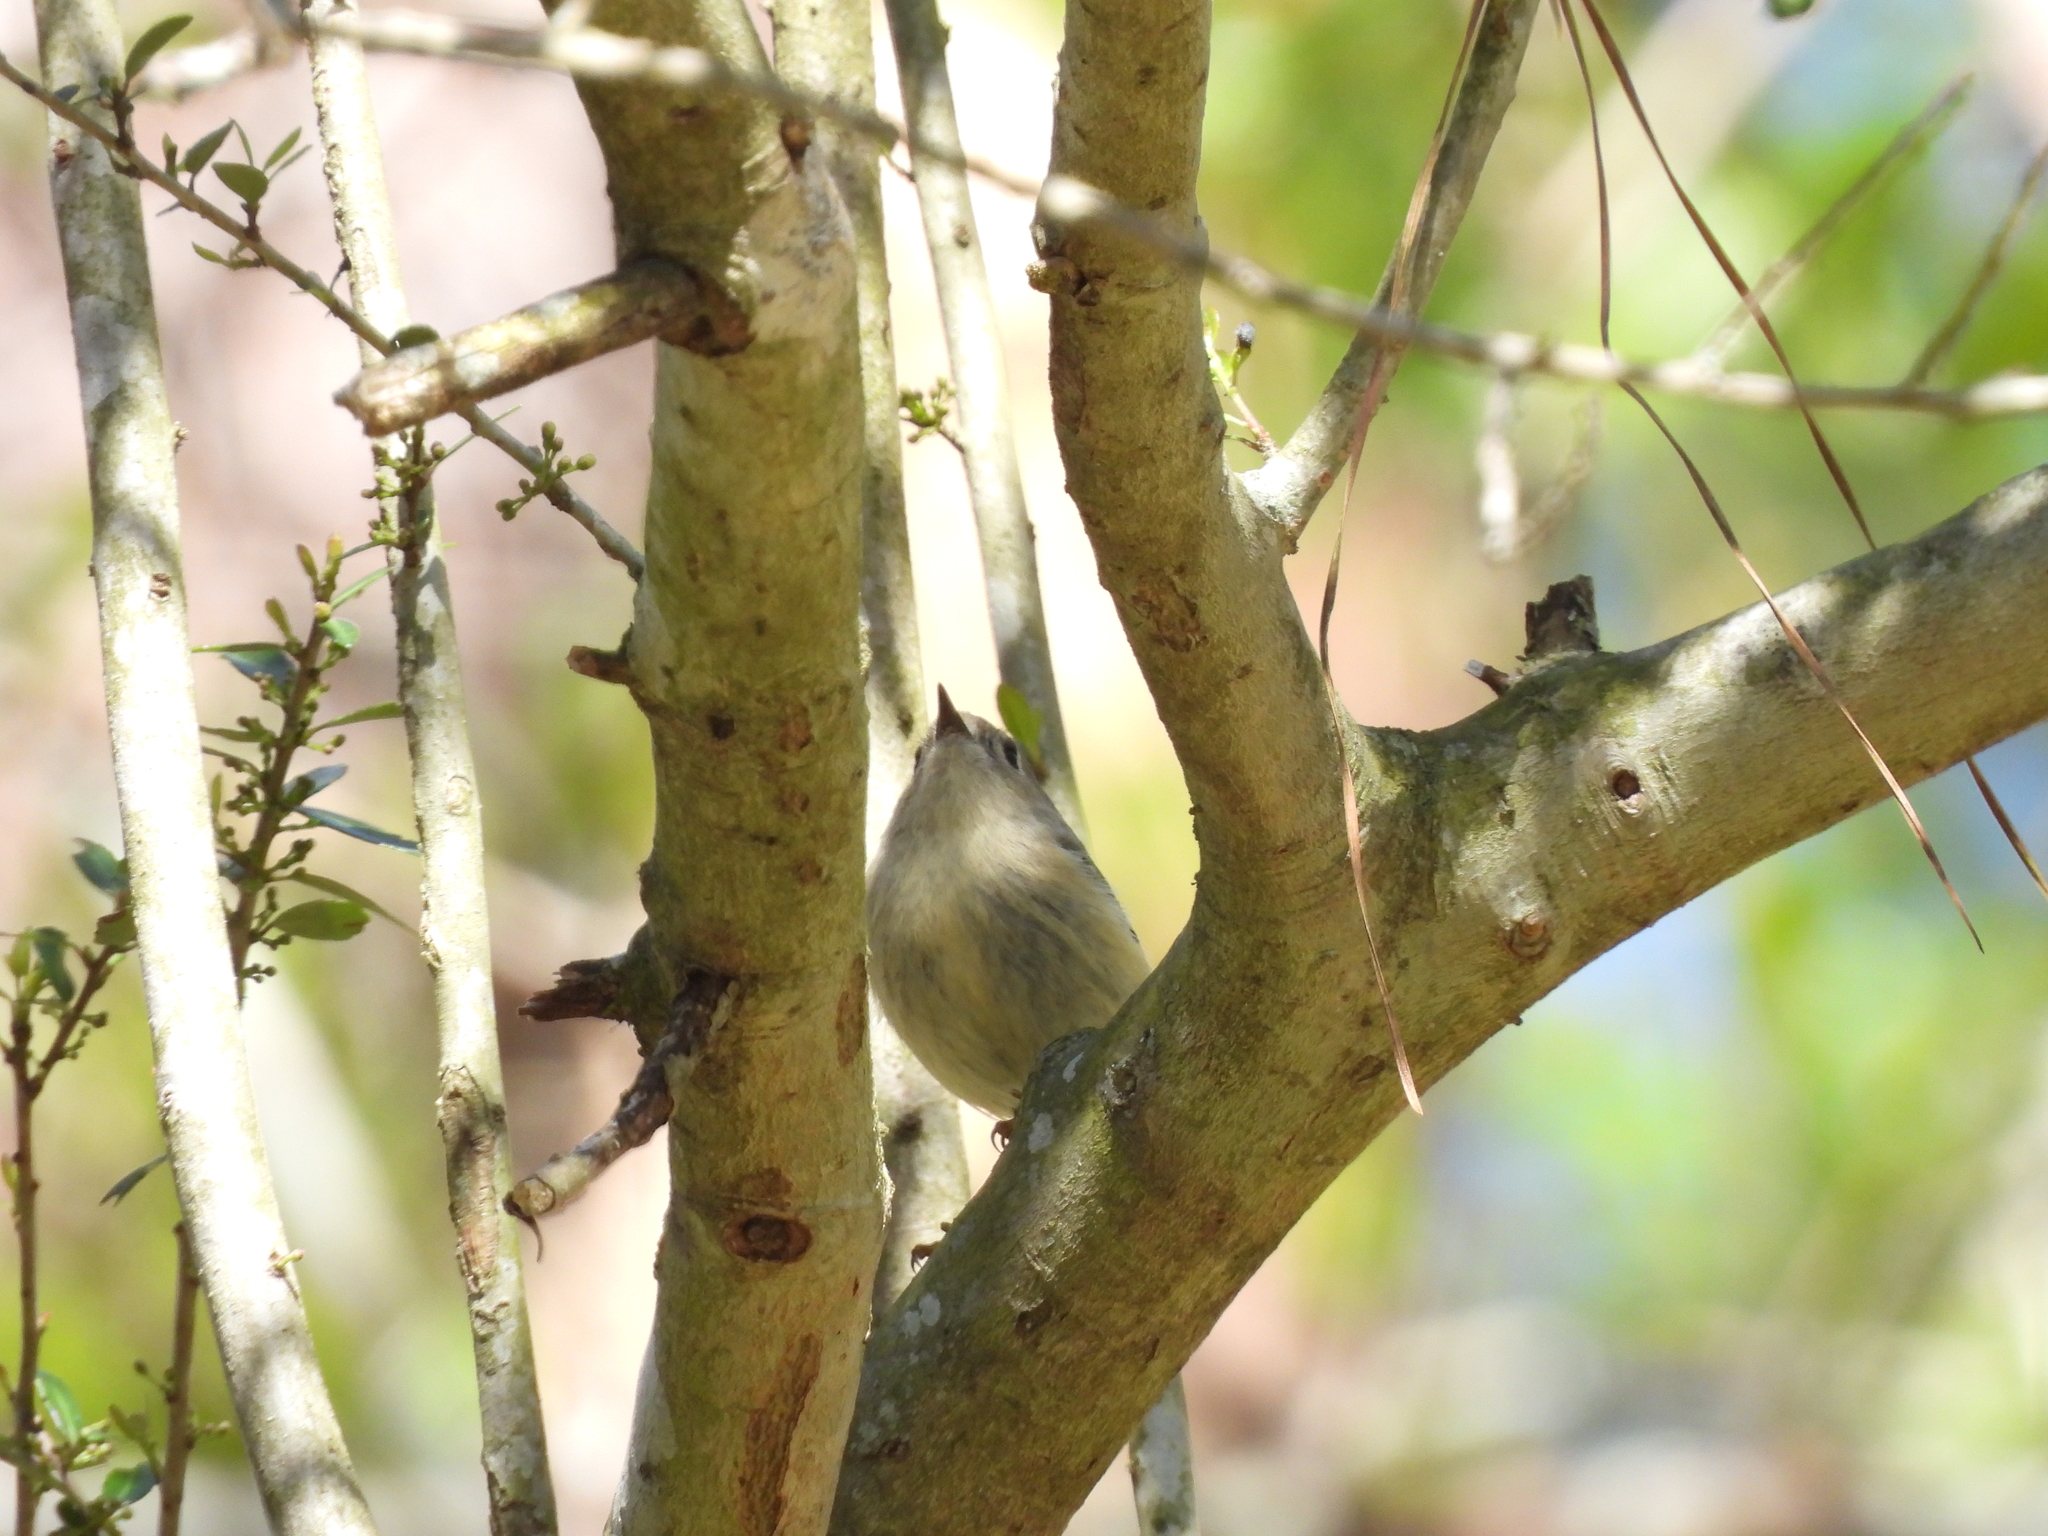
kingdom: Animalia
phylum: Chordata
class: Aves
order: Passeriformes
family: Regulidae
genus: Regulus
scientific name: Regulus calendula
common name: Ruby-crowned kinglet
